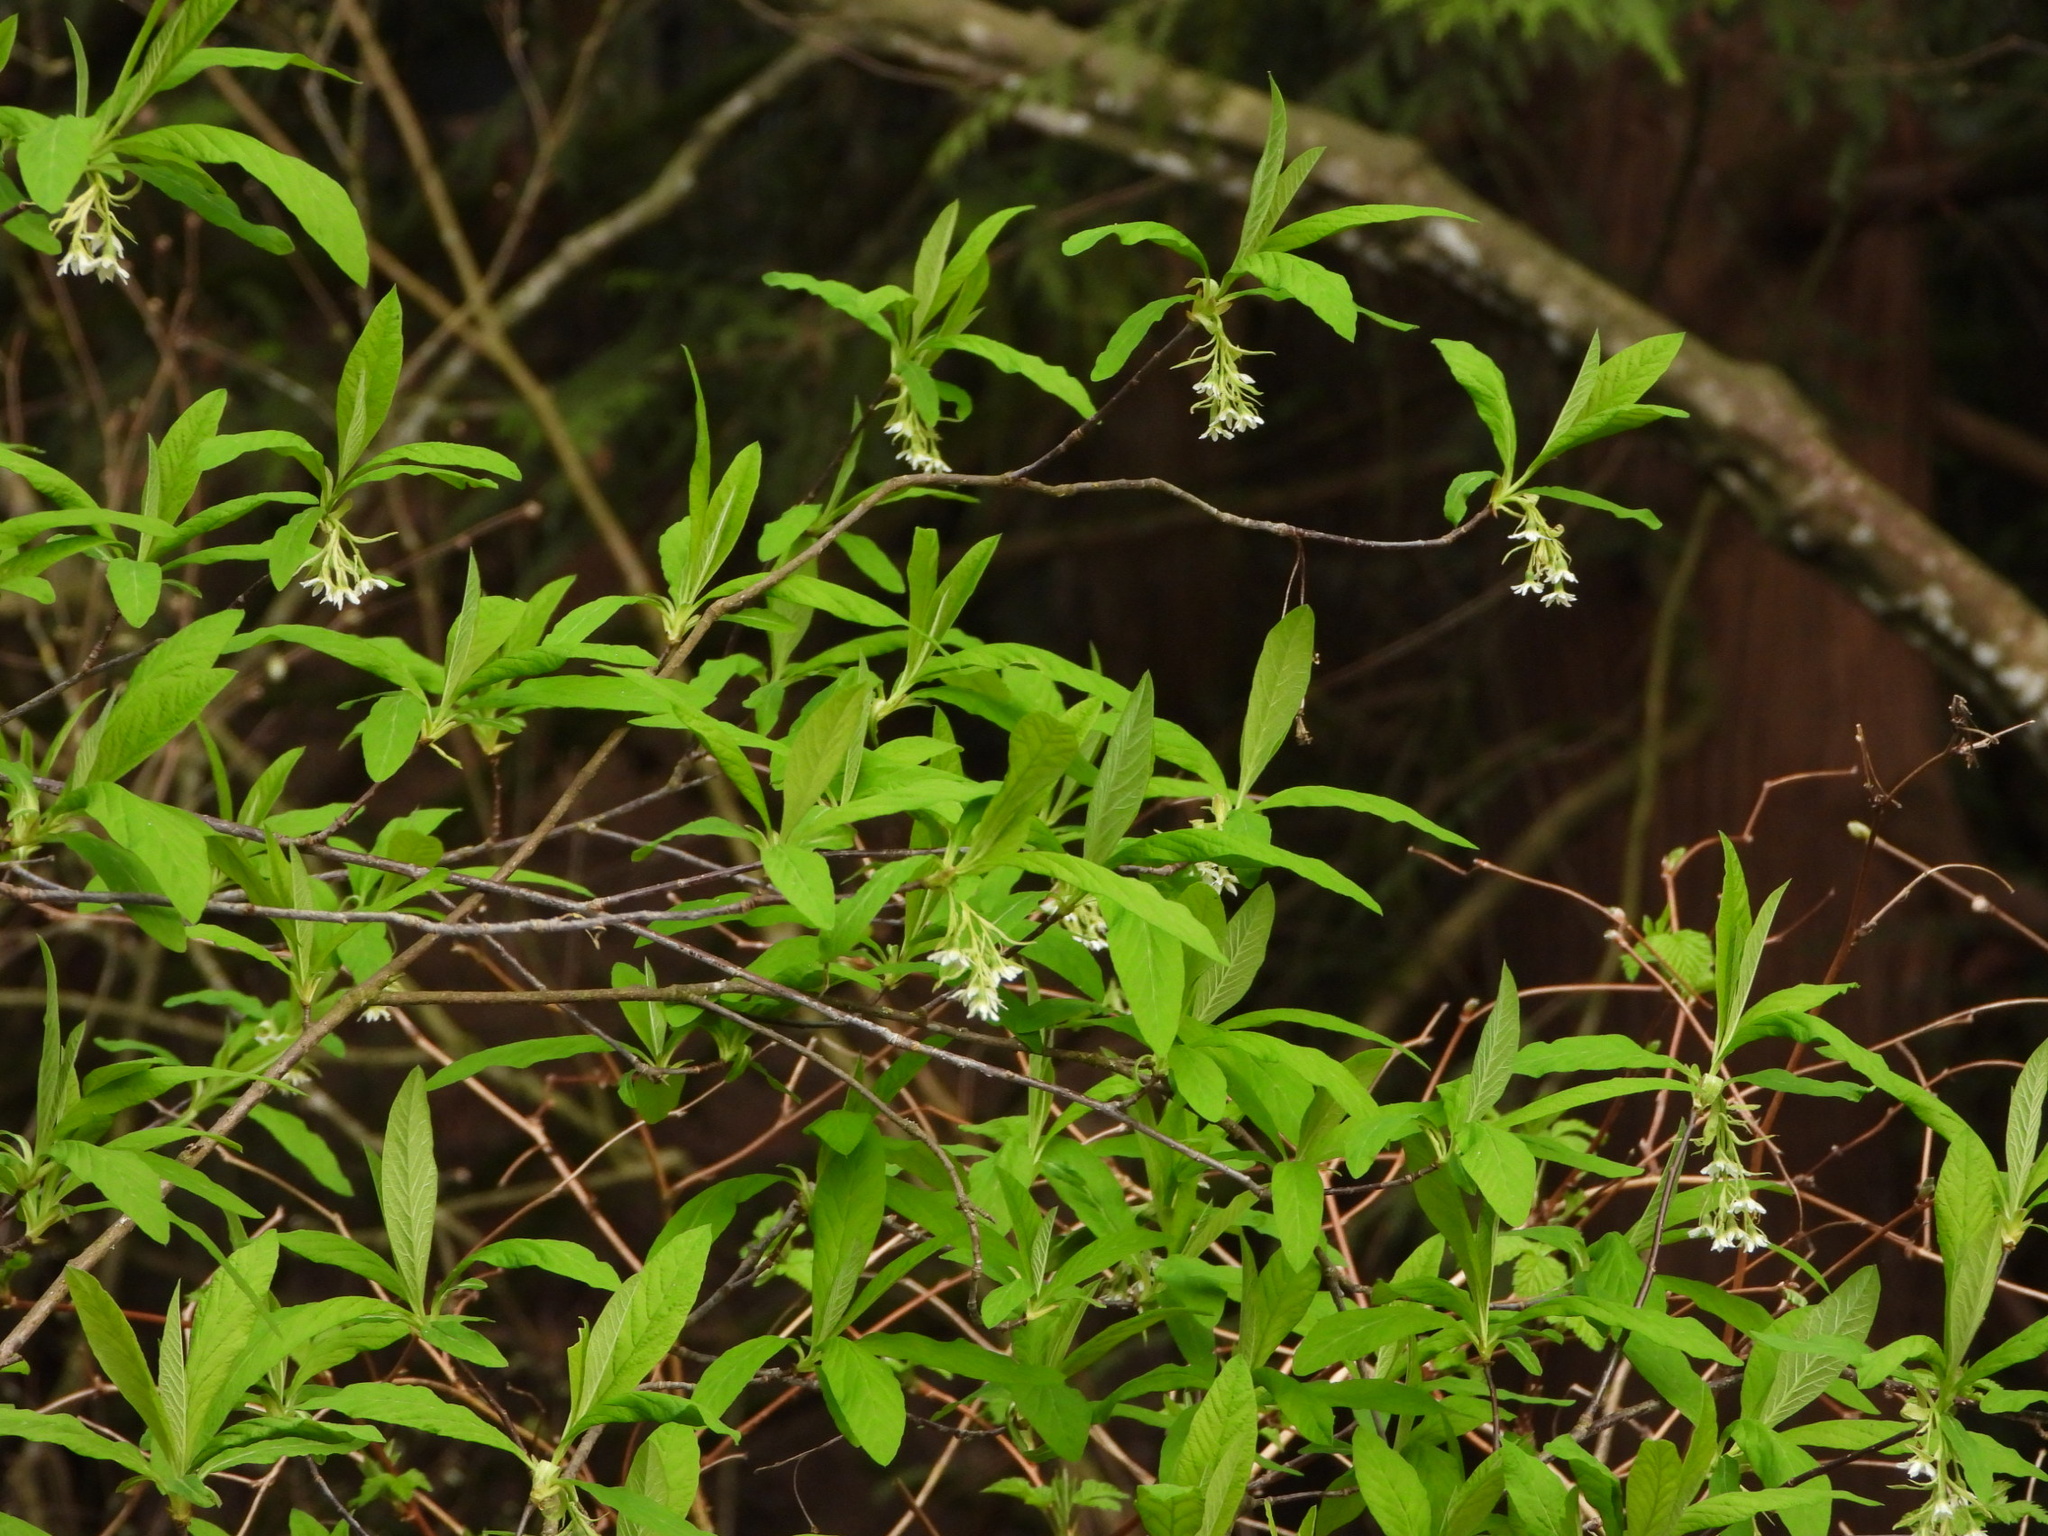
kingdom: Plantae
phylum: Tracheophyta
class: Magnoliopsida
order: Rosales
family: Rosaceae
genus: Oemleria
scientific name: Oemleria cerasiformis
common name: Osoberry
